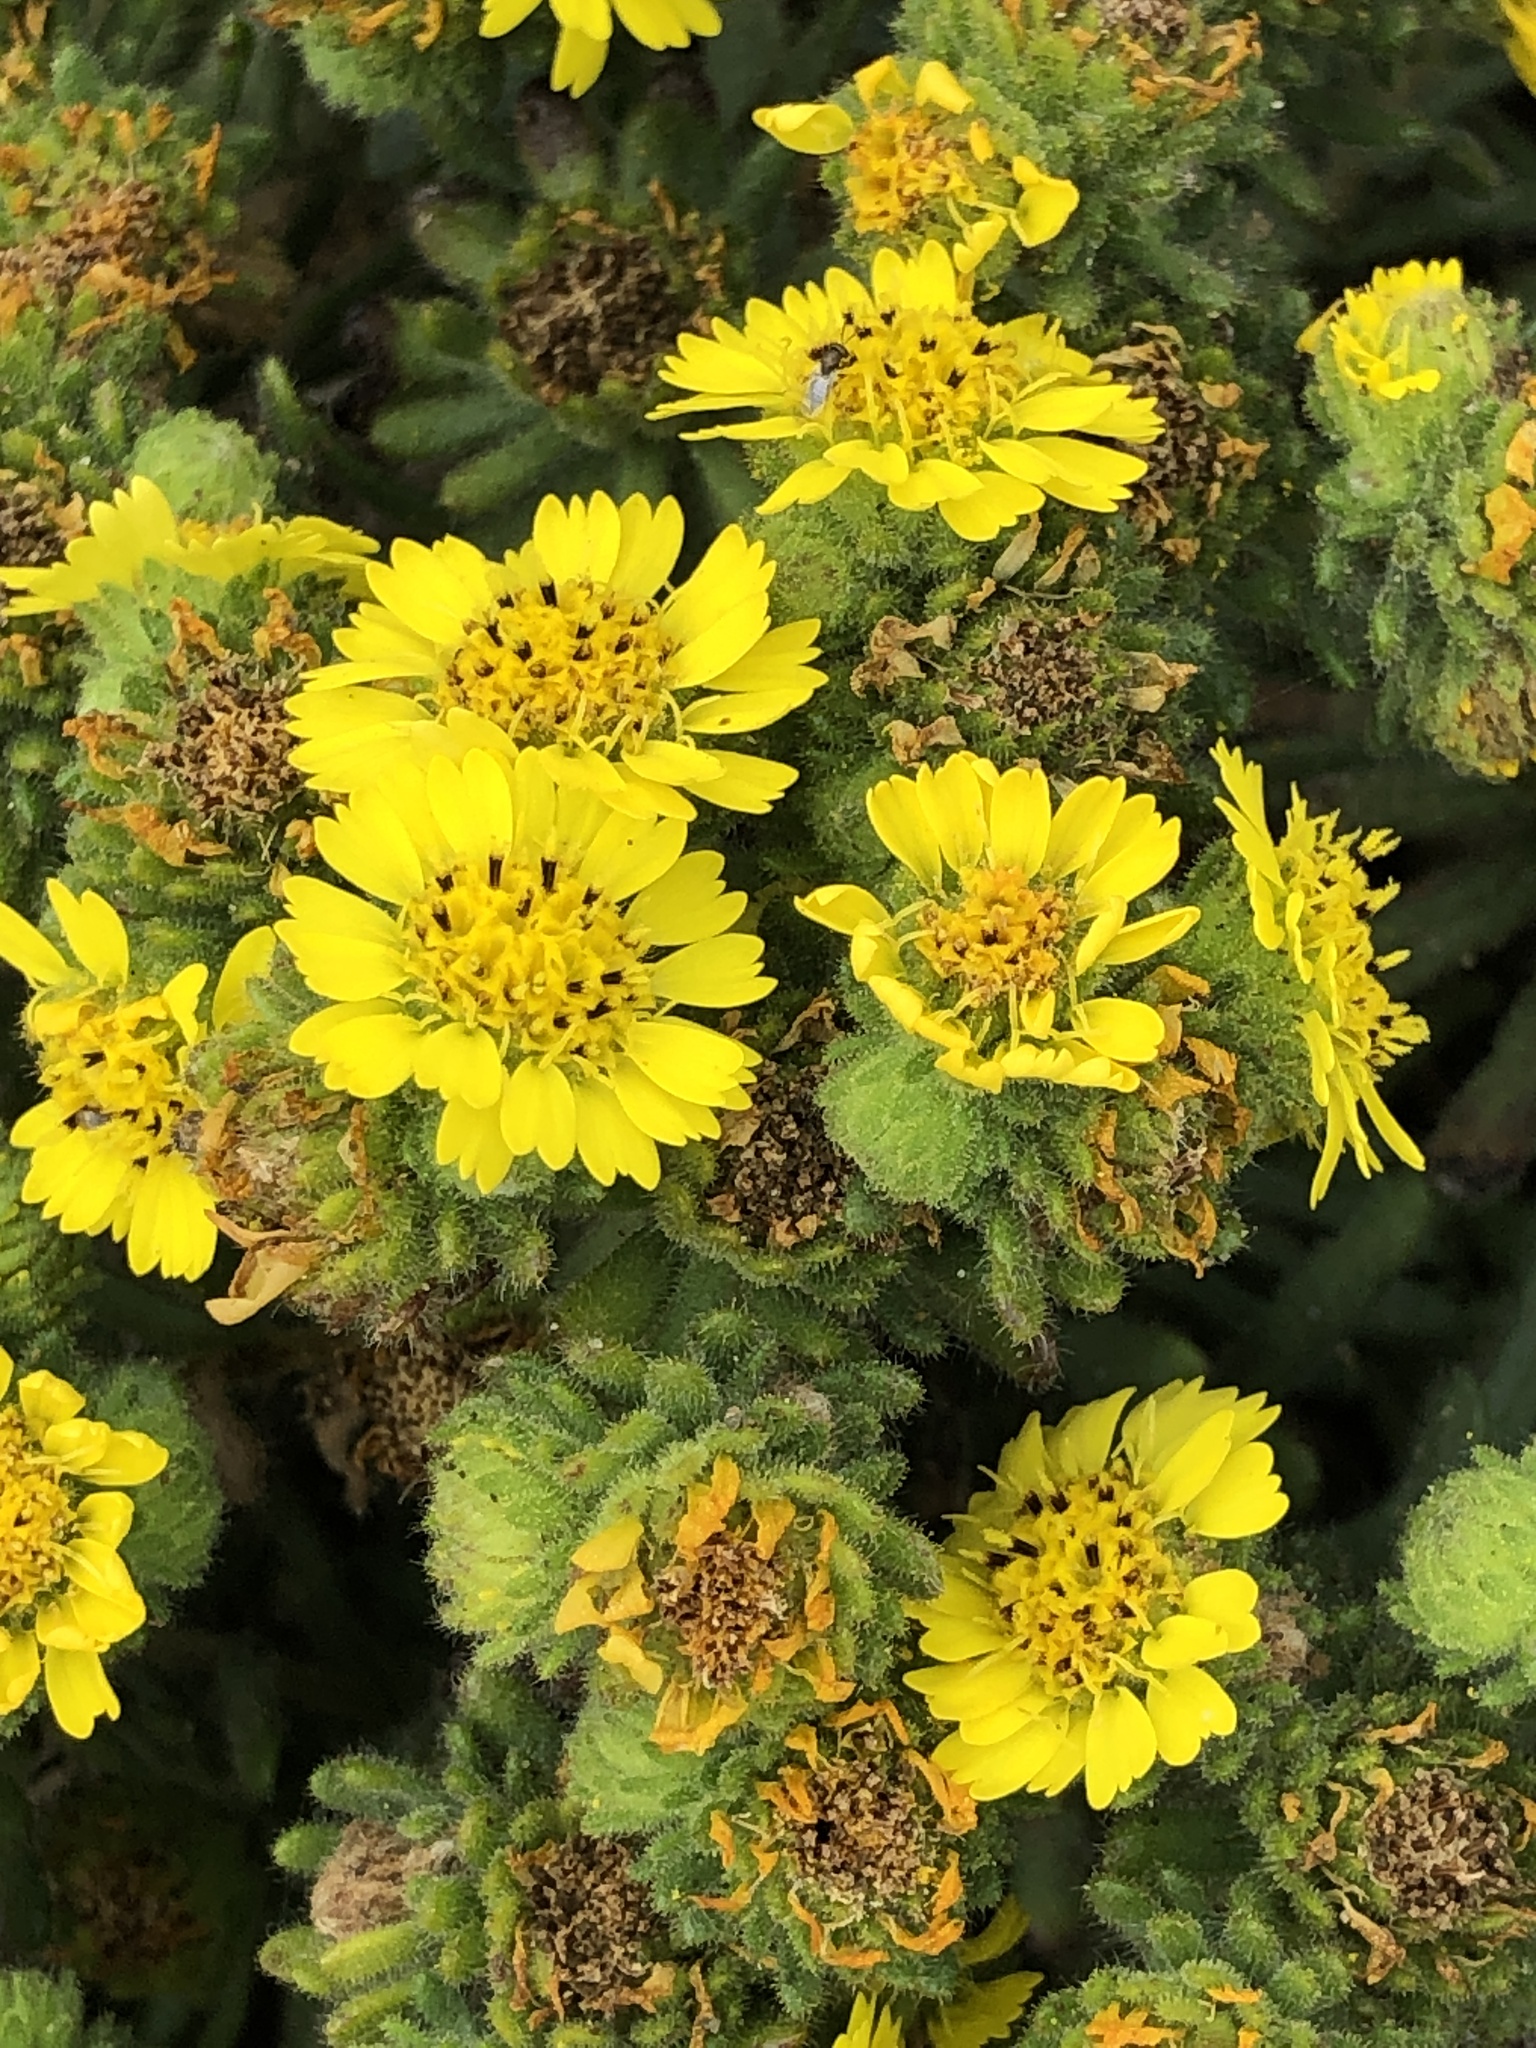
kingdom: Plantae
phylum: Tracheophyta
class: Magnoliopsida
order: Asterales
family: Asteraceae
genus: Deinandra
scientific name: Deinandra corymbosa
